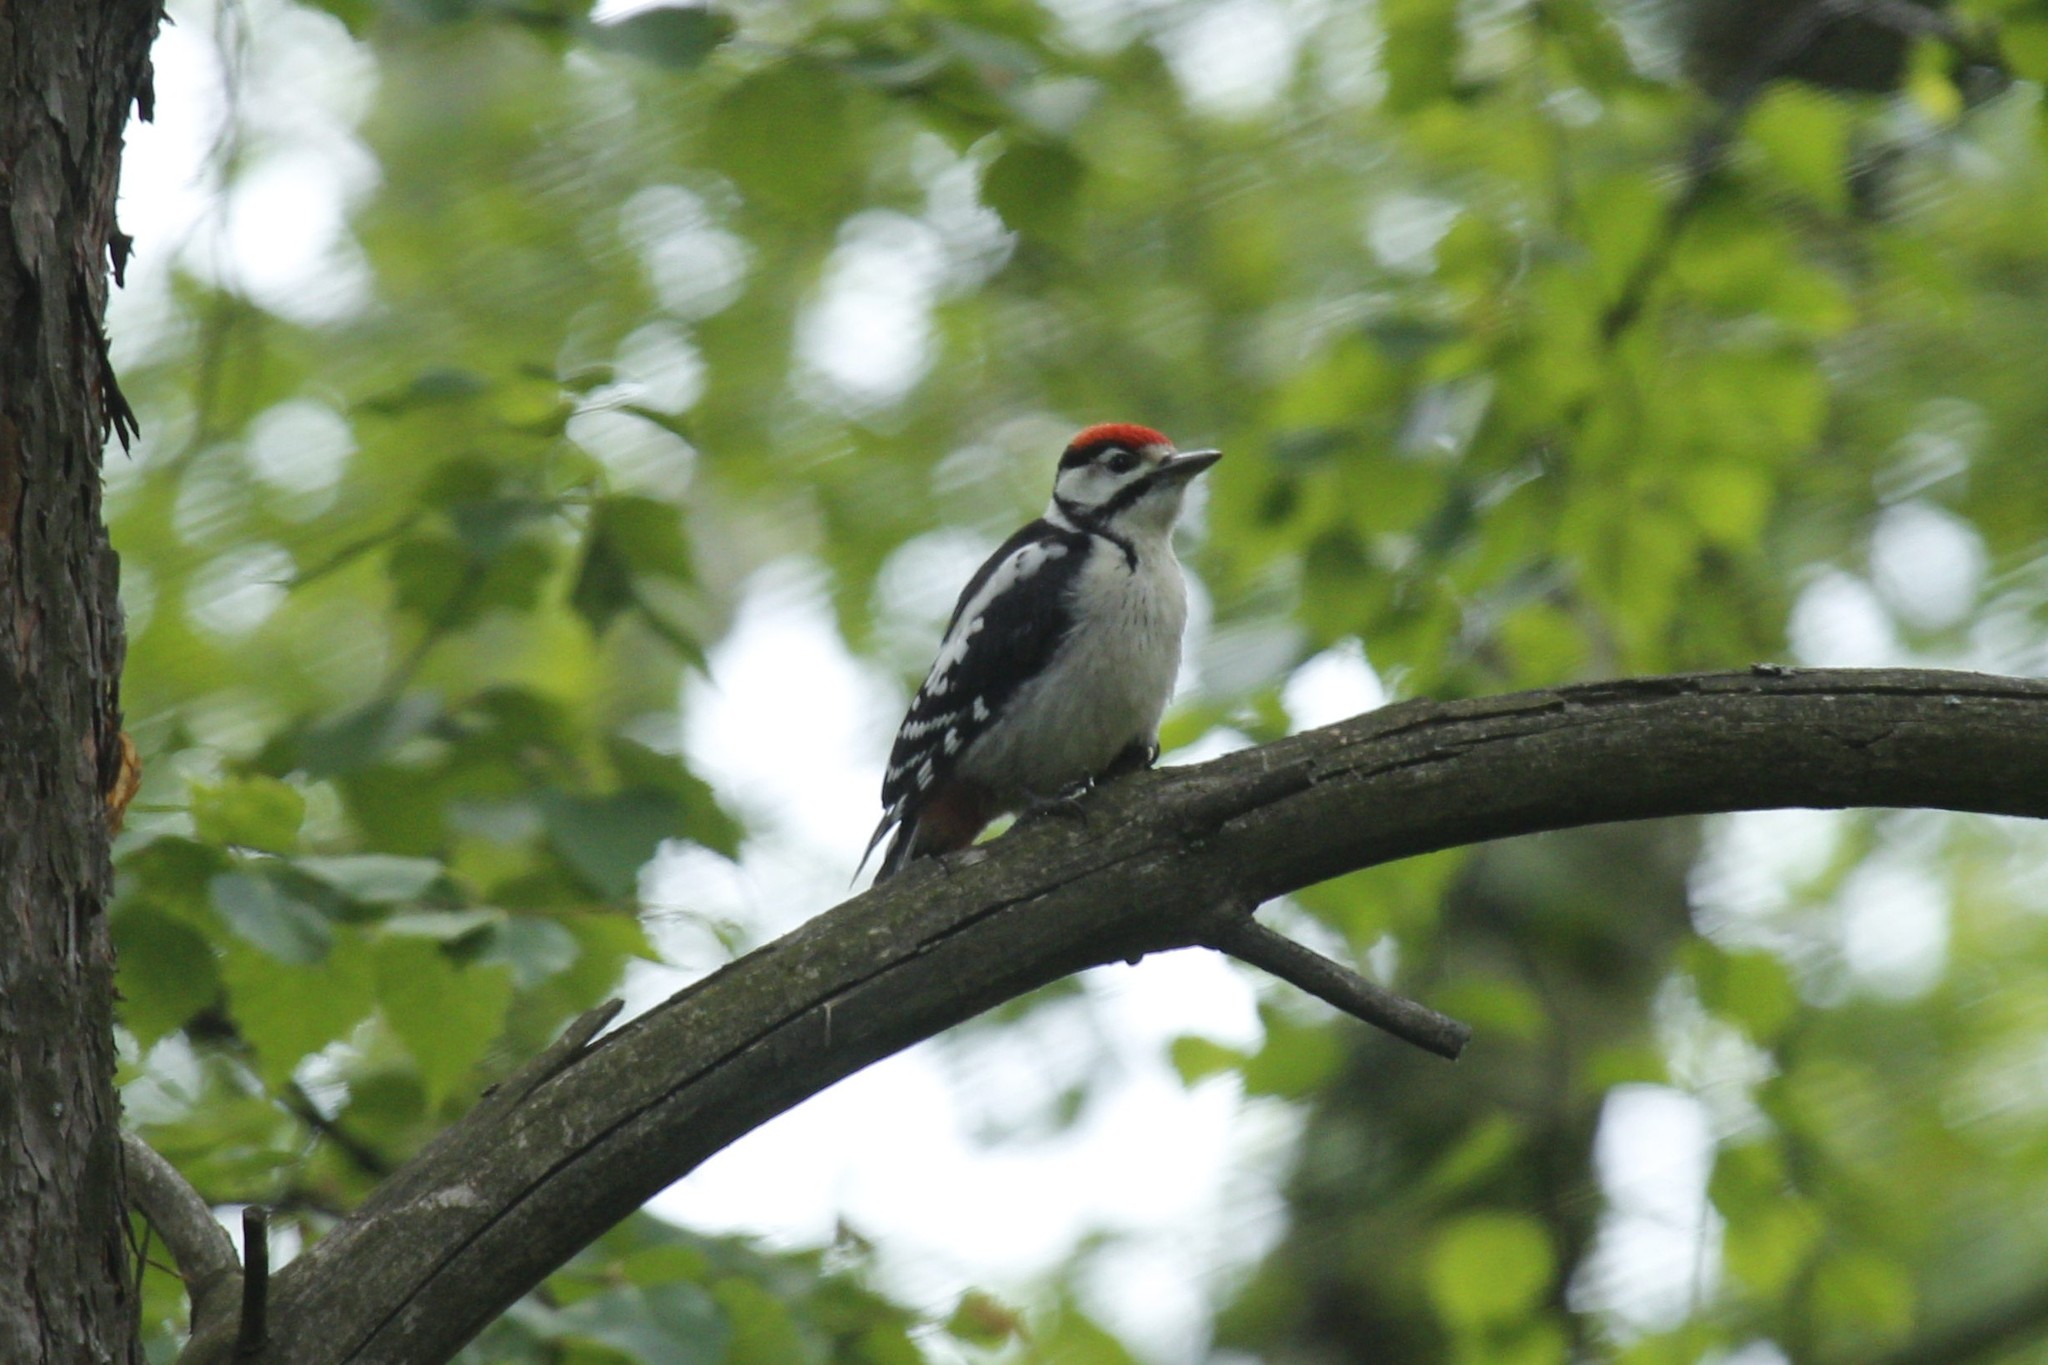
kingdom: Animalia
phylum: Chordata
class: Aves
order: Piciformes
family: Picidae
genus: Dendrocopos
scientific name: Dendrocopos major
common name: Great spotted woodpecker
